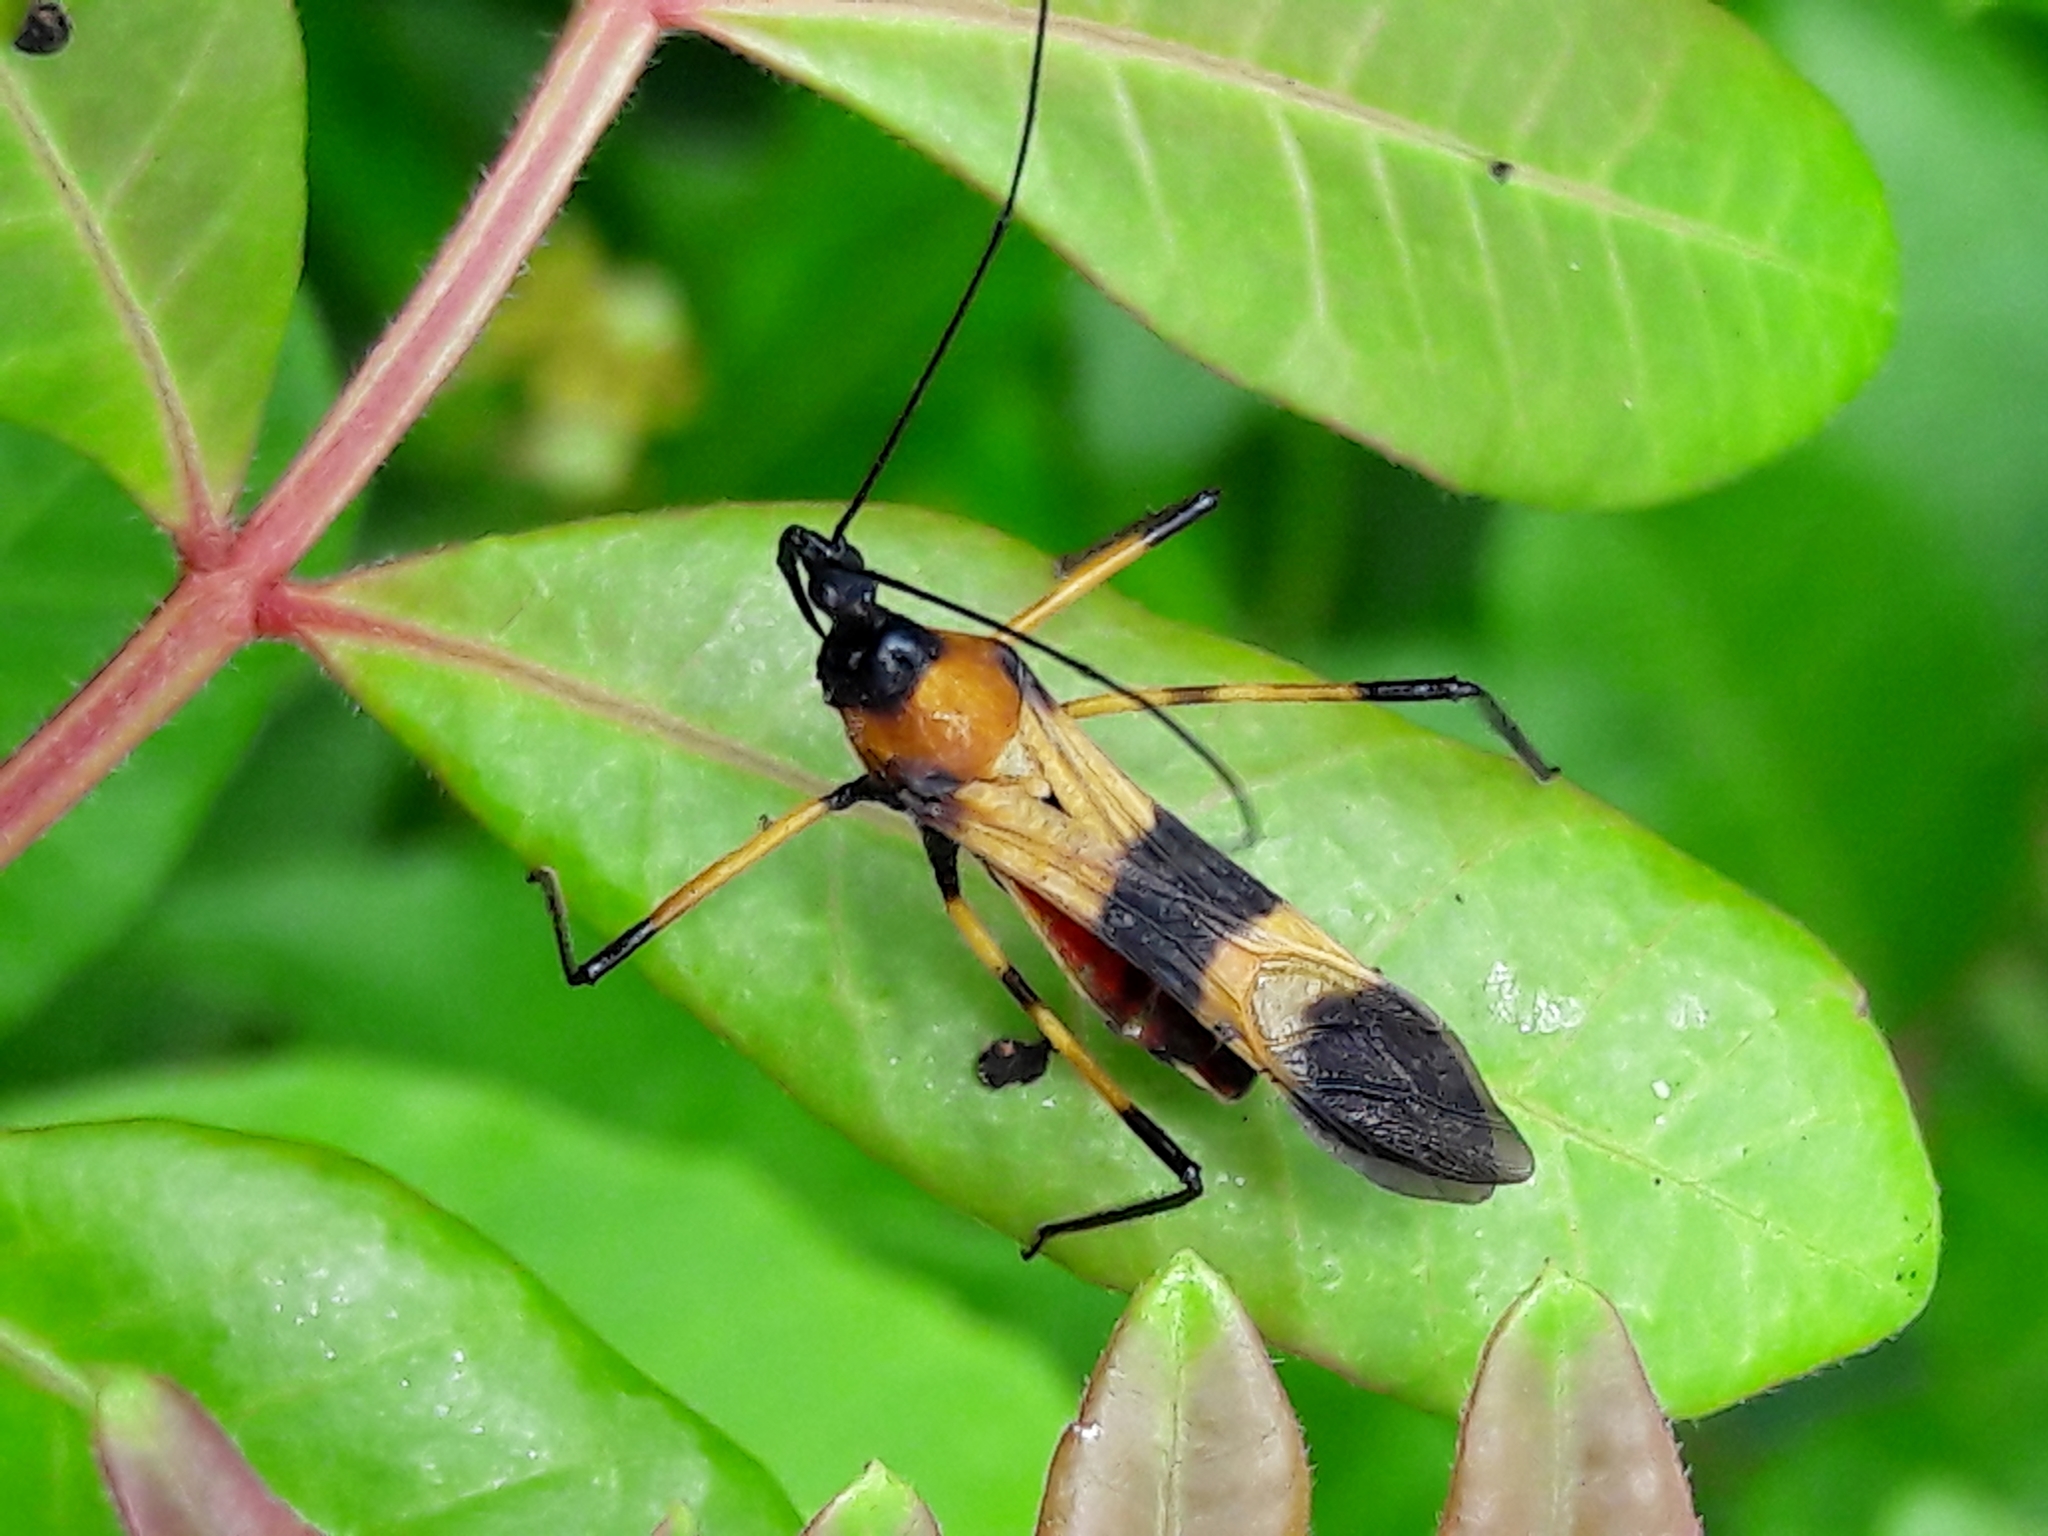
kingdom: Animalia
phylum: Arthropoda
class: Insecta
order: Hemiptera
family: Reduviidae
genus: Zelus
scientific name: Zelus errans
